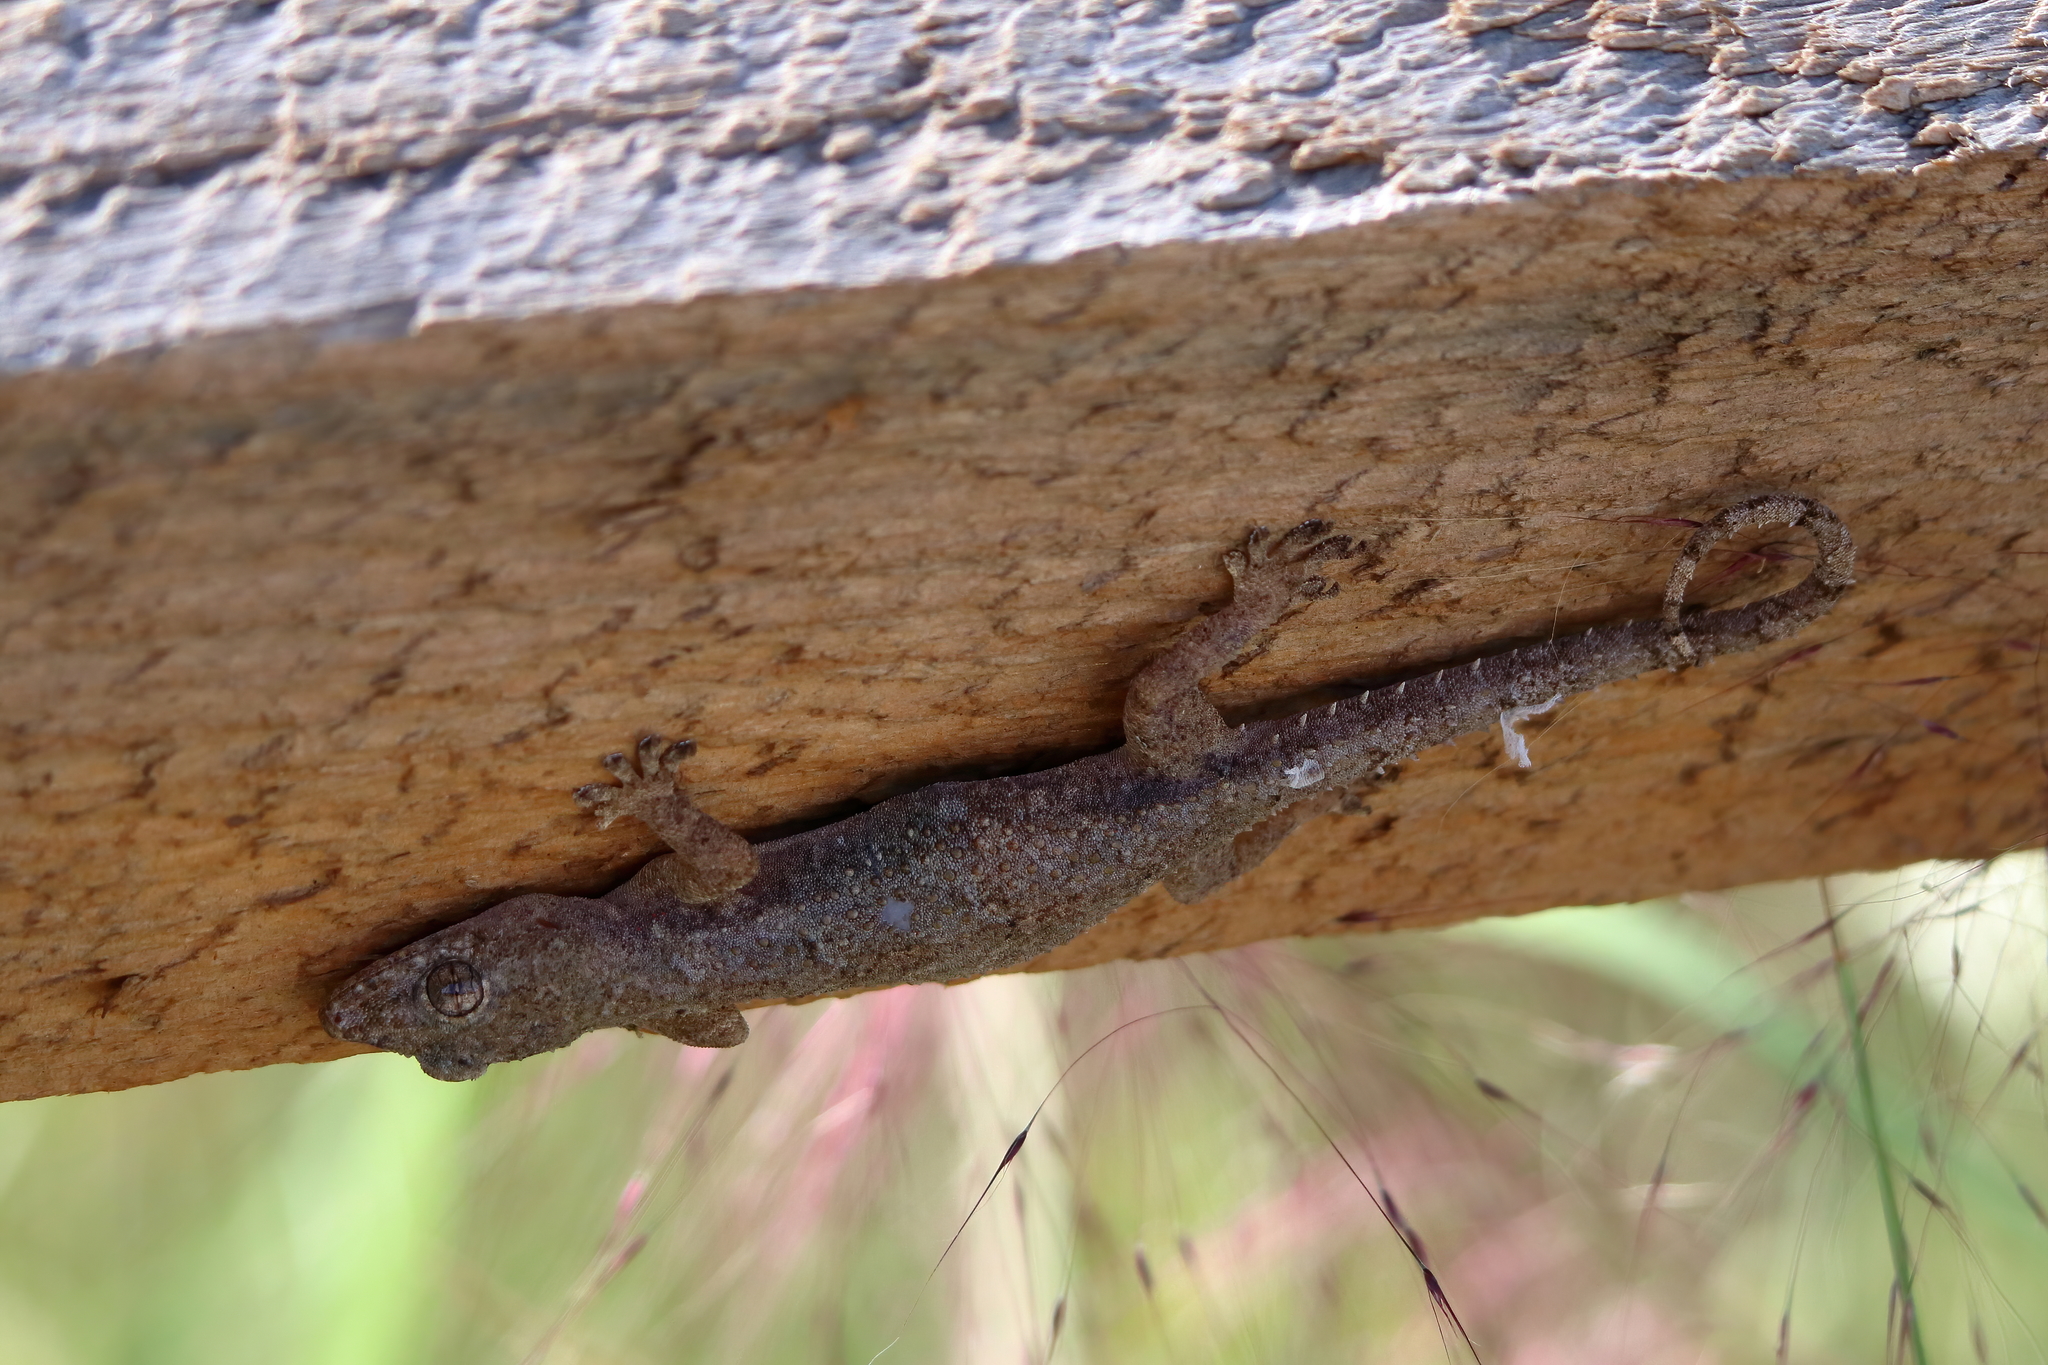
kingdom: Animalia
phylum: Chordata
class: Squamata
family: Gekkonidae
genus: Hemidactylus
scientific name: Hemidactylus mabouia
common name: House gecko
